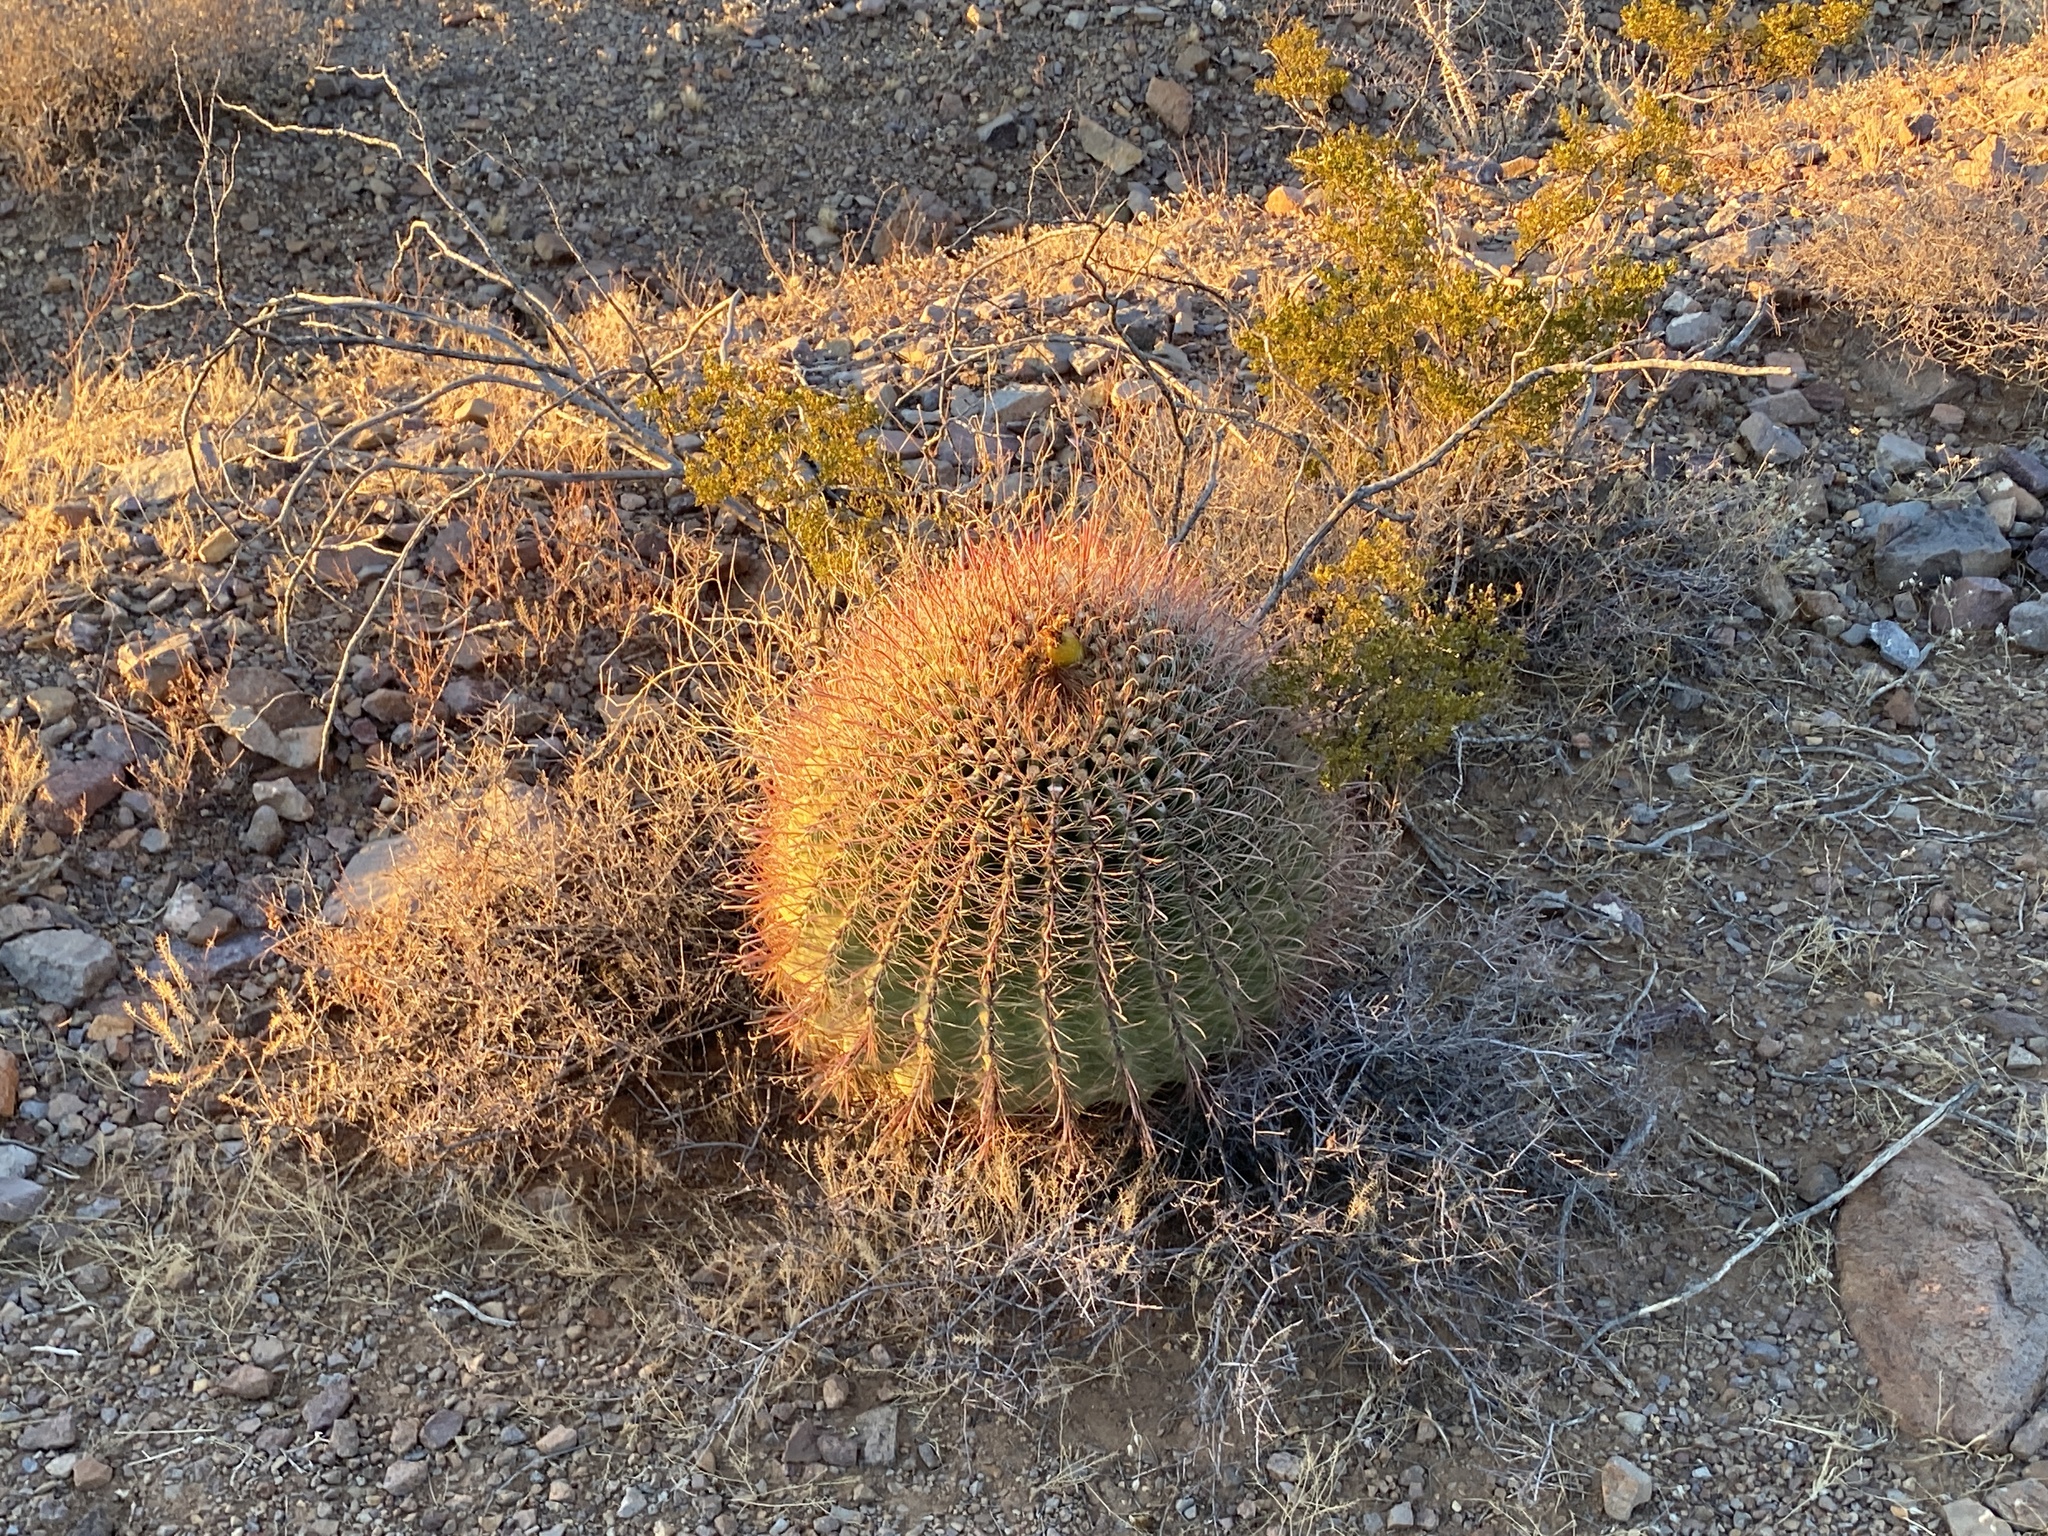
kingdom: Plantae
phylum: Tracheophyta
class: Magnoliopsida
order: Caryophyllales
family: Cactaceae
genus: Ferocactus
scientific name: Ferocactus wislizeni
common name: Candy barrel cactus
